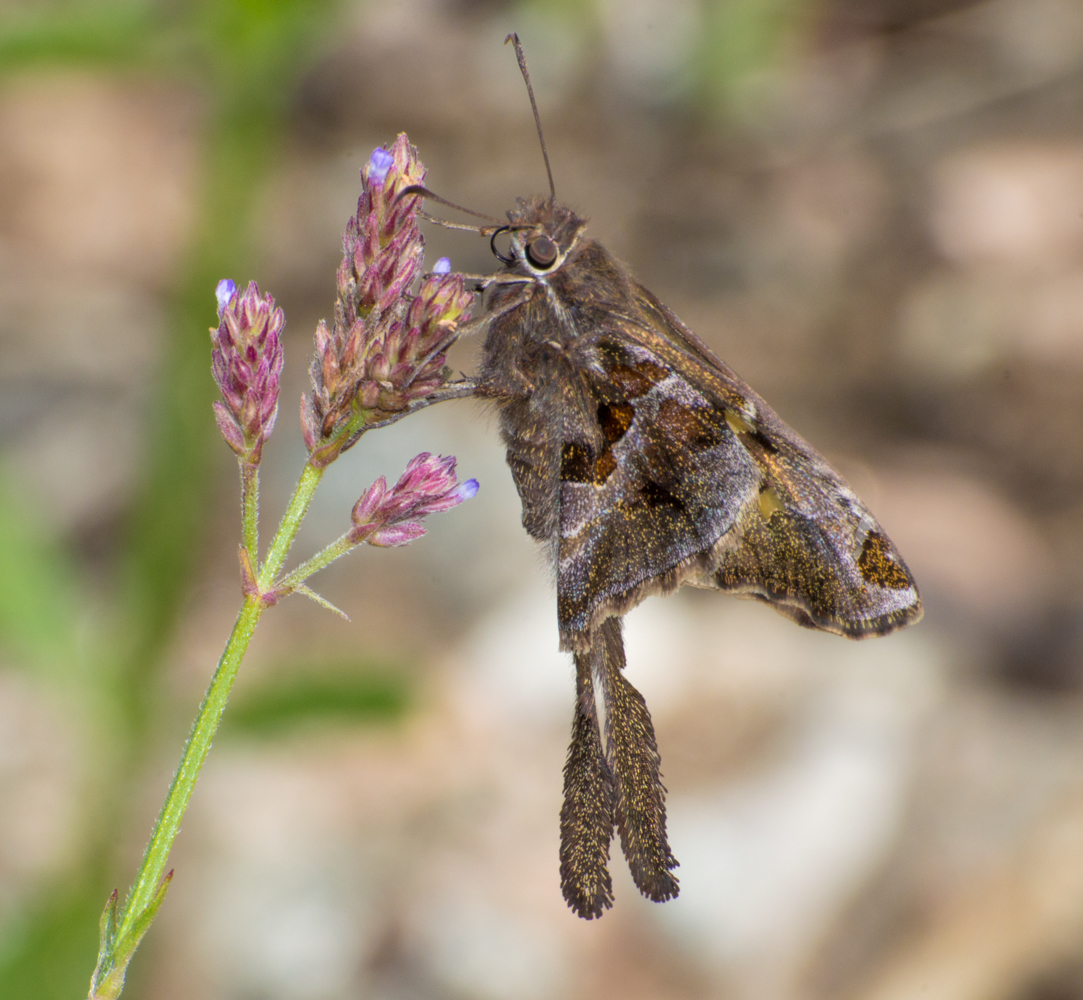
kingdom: Animalia
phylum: Arthropoda
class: Insecta
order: Lepidoptera
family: Hesperiidae
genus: Chioides
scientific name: Chioides catillus
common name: Silverbanded skipper
